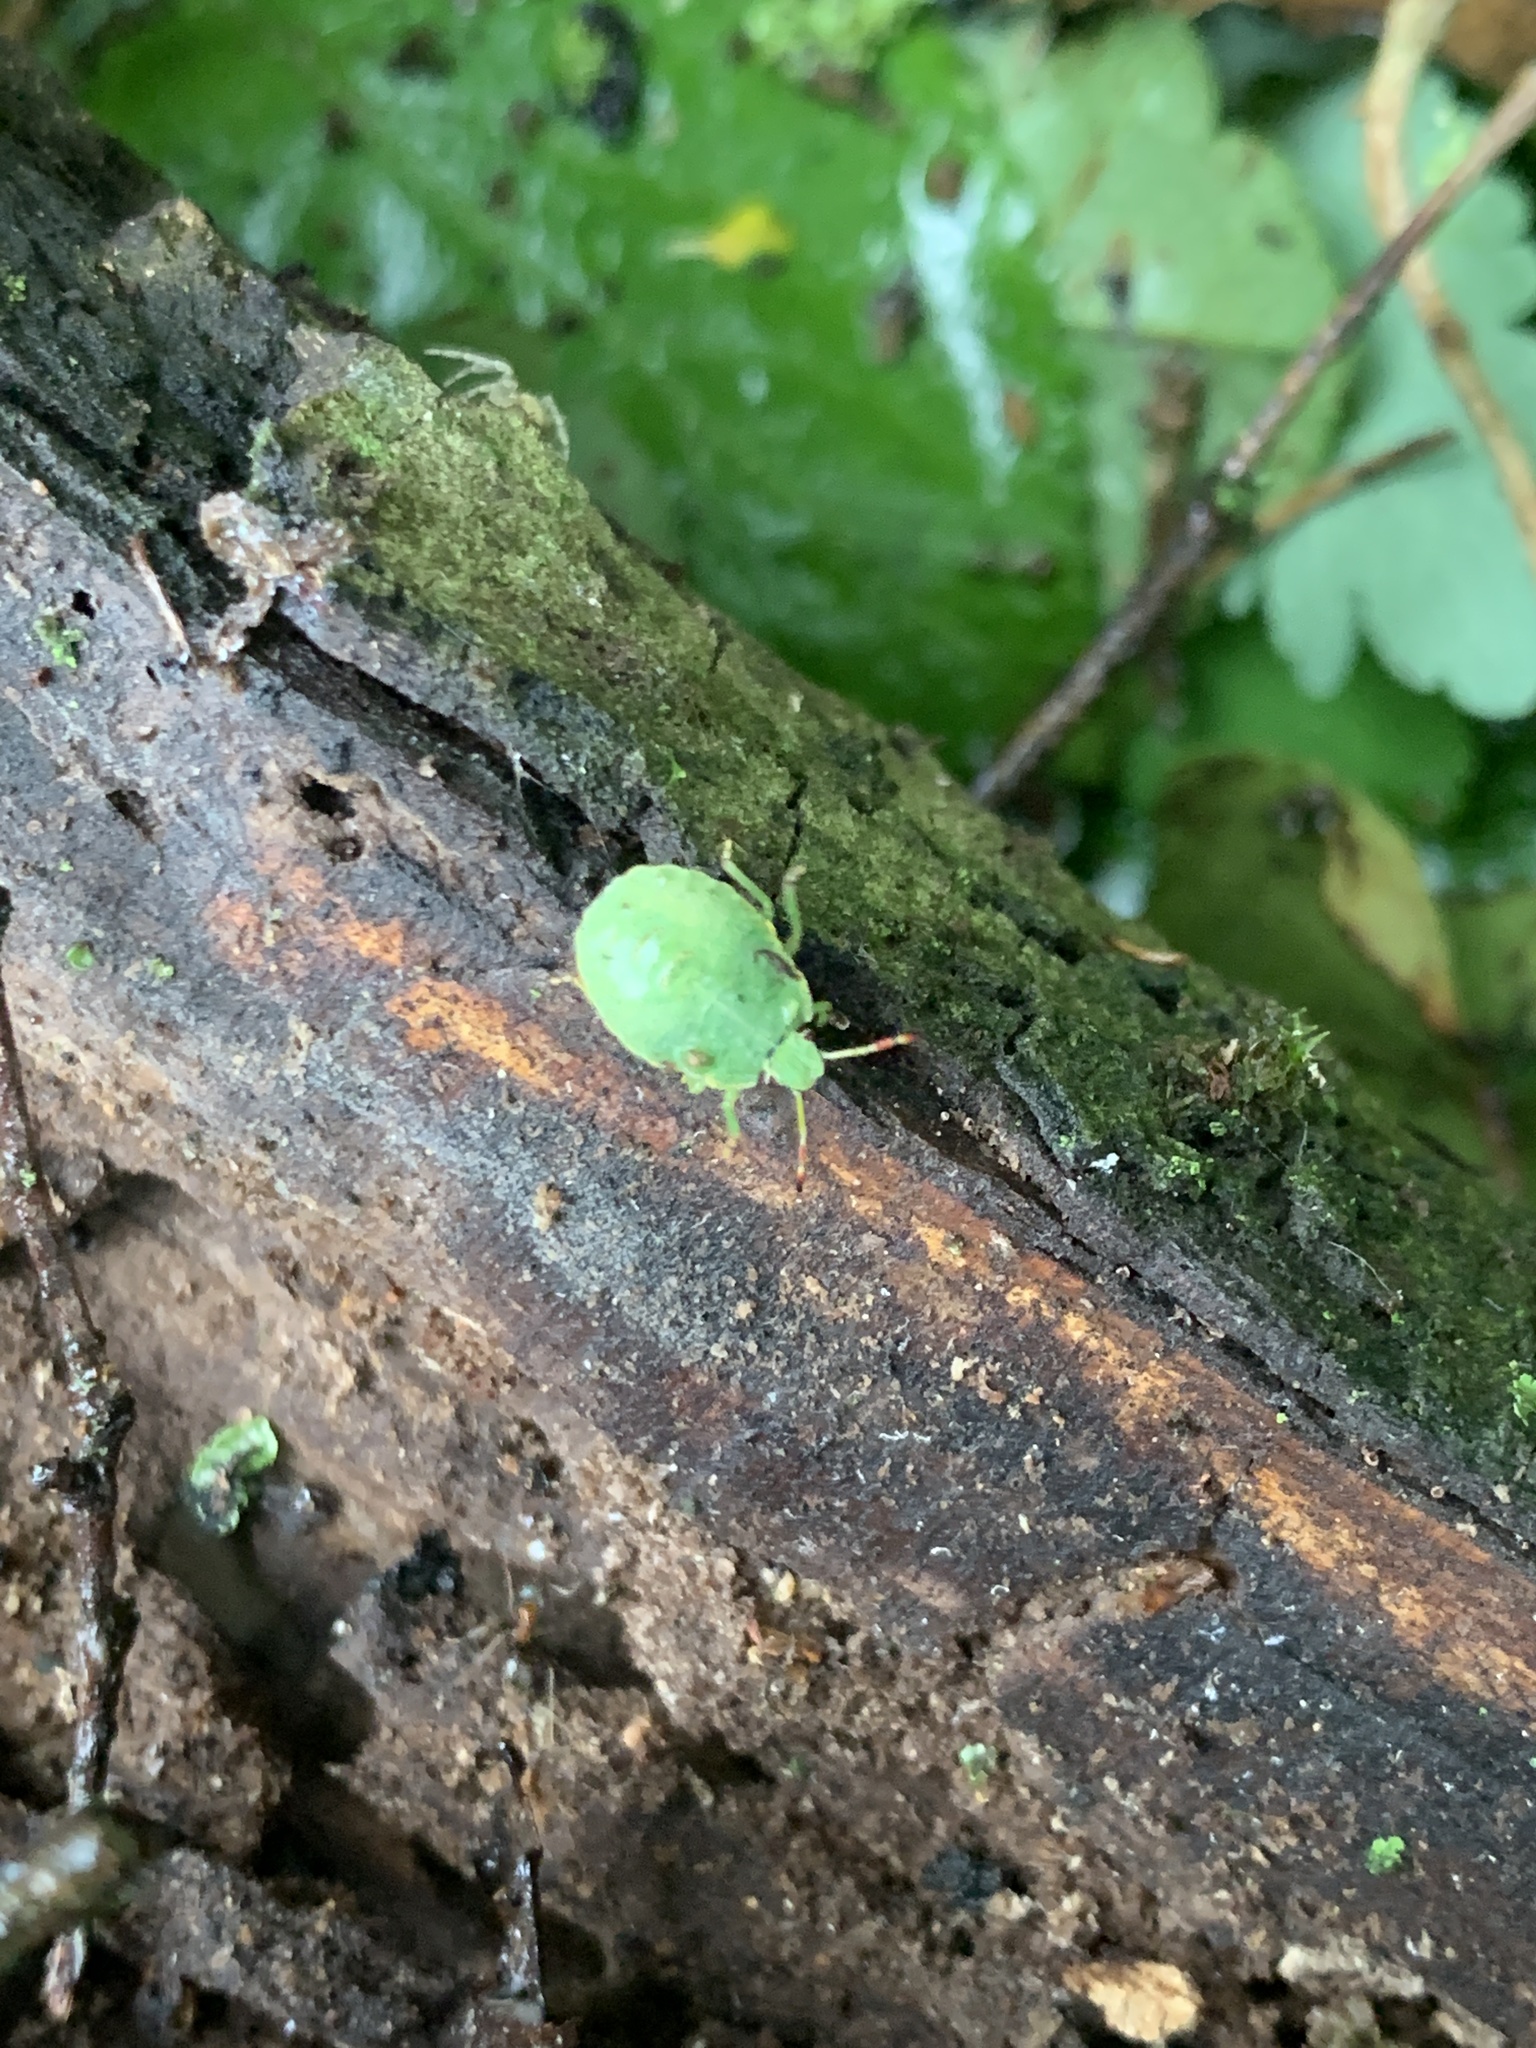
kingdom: Animalia
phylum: Arthropoda
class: Insecta
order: Hemiptera
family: Pentatomidae
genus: Palomena
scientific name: Palomena prasina
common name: Green shieldbug
